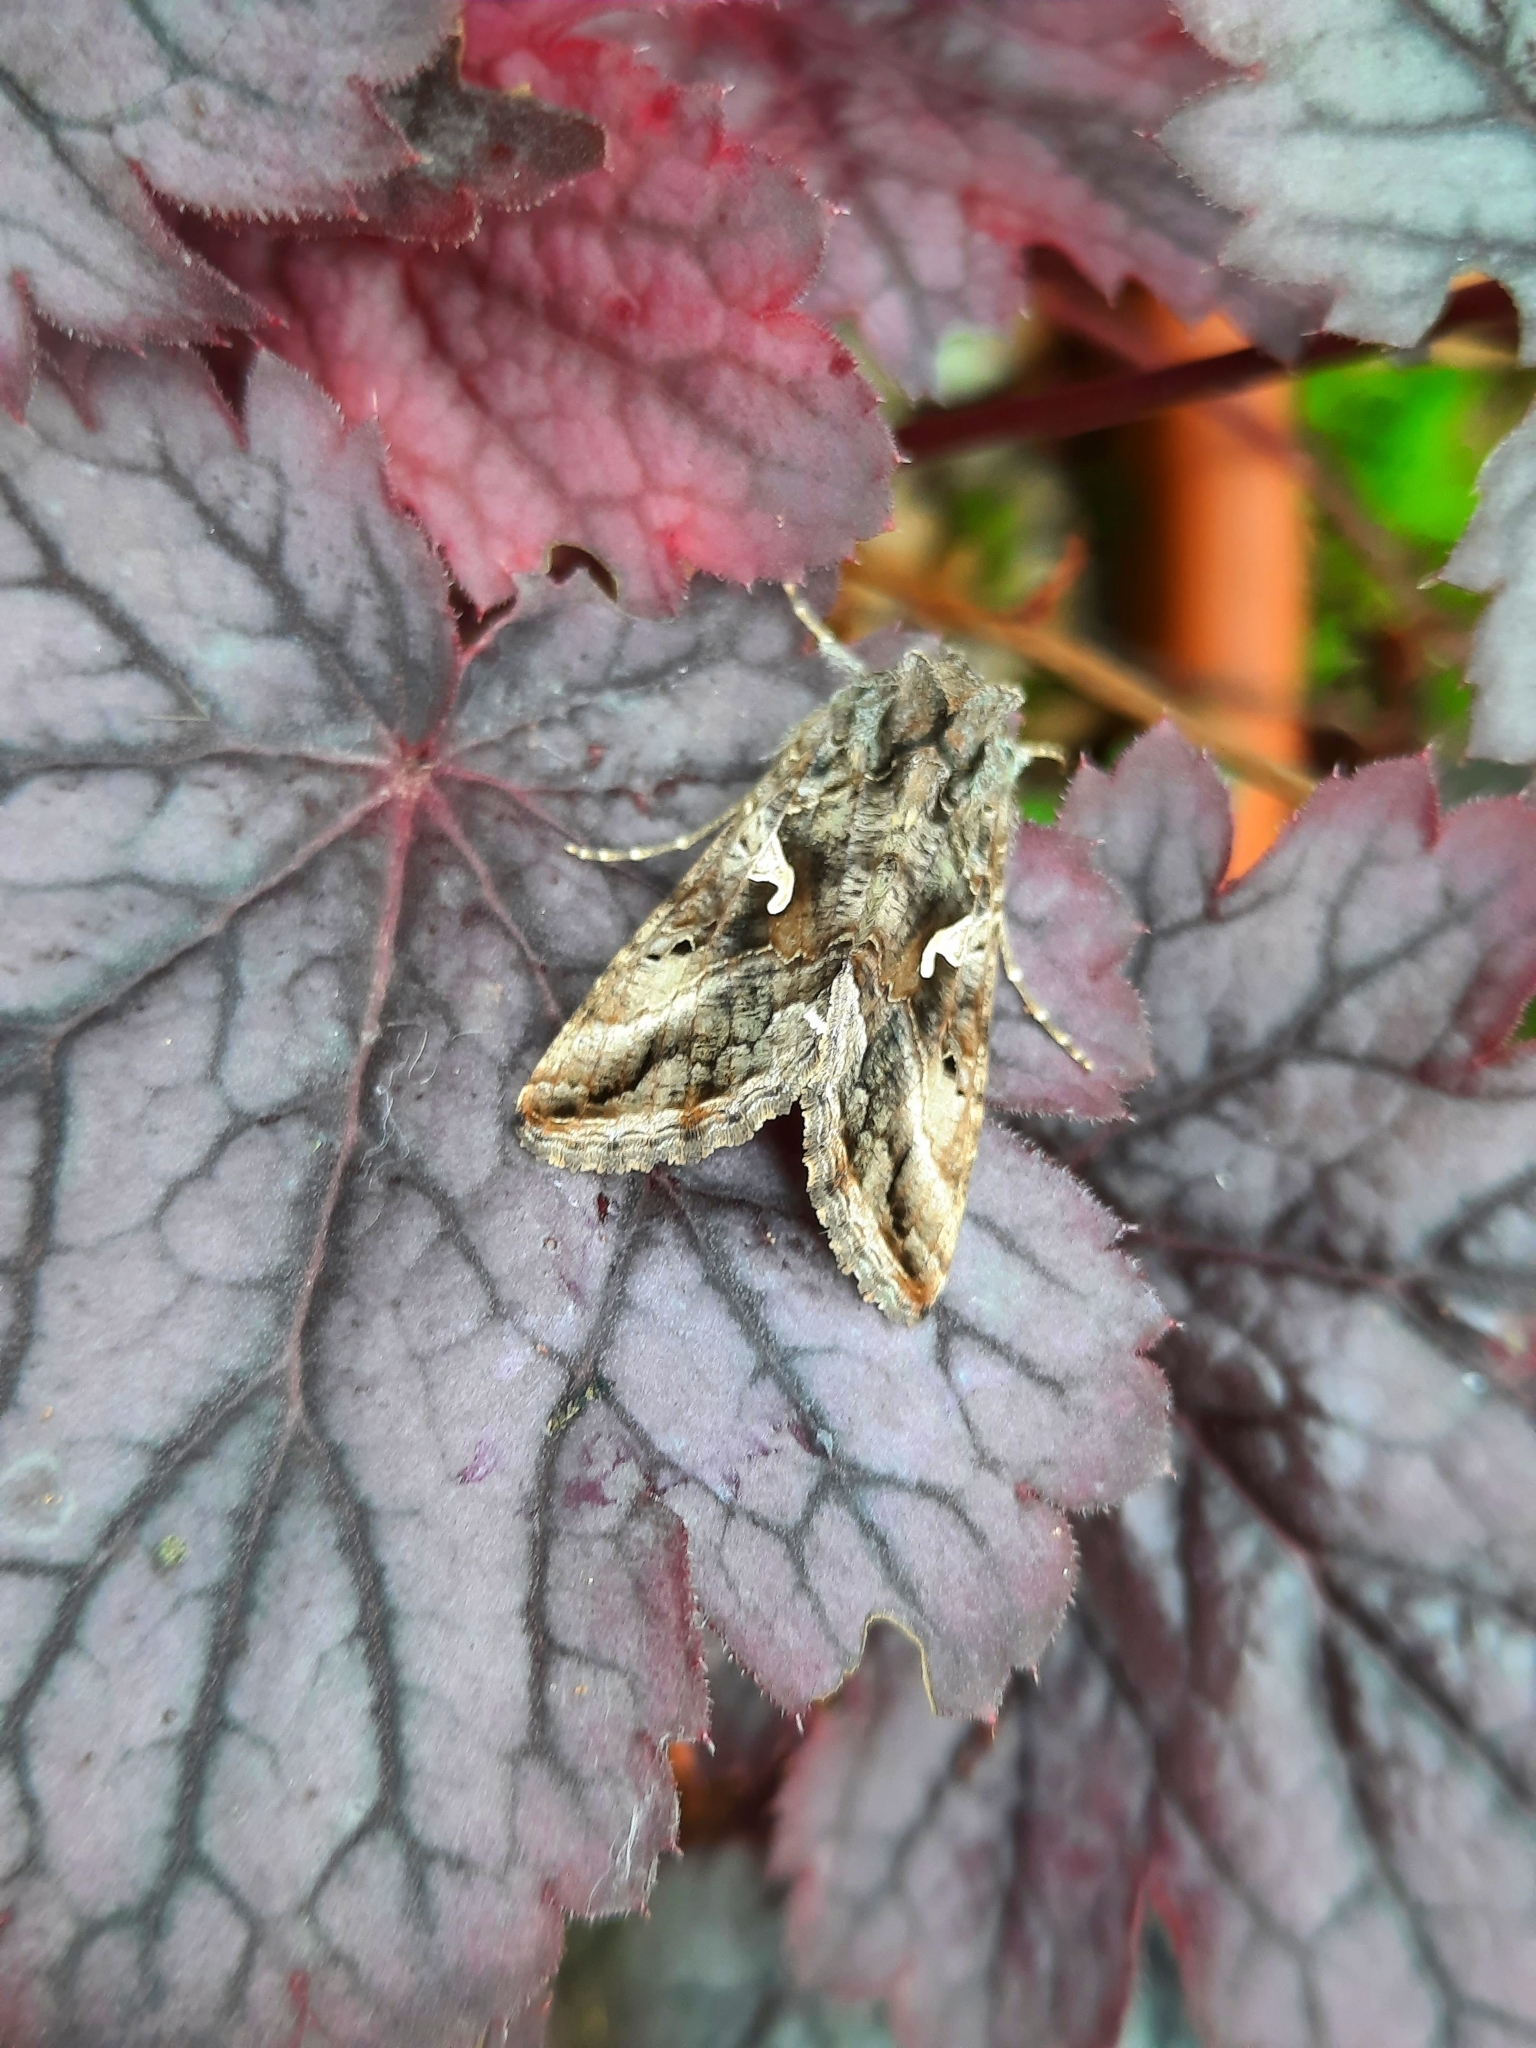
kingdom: Animalia
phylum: Arthropoda
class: Insecta
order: Lepidoptera
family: Noctuidae
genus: Autographa
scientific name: Autographa gamma
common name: Silver y
